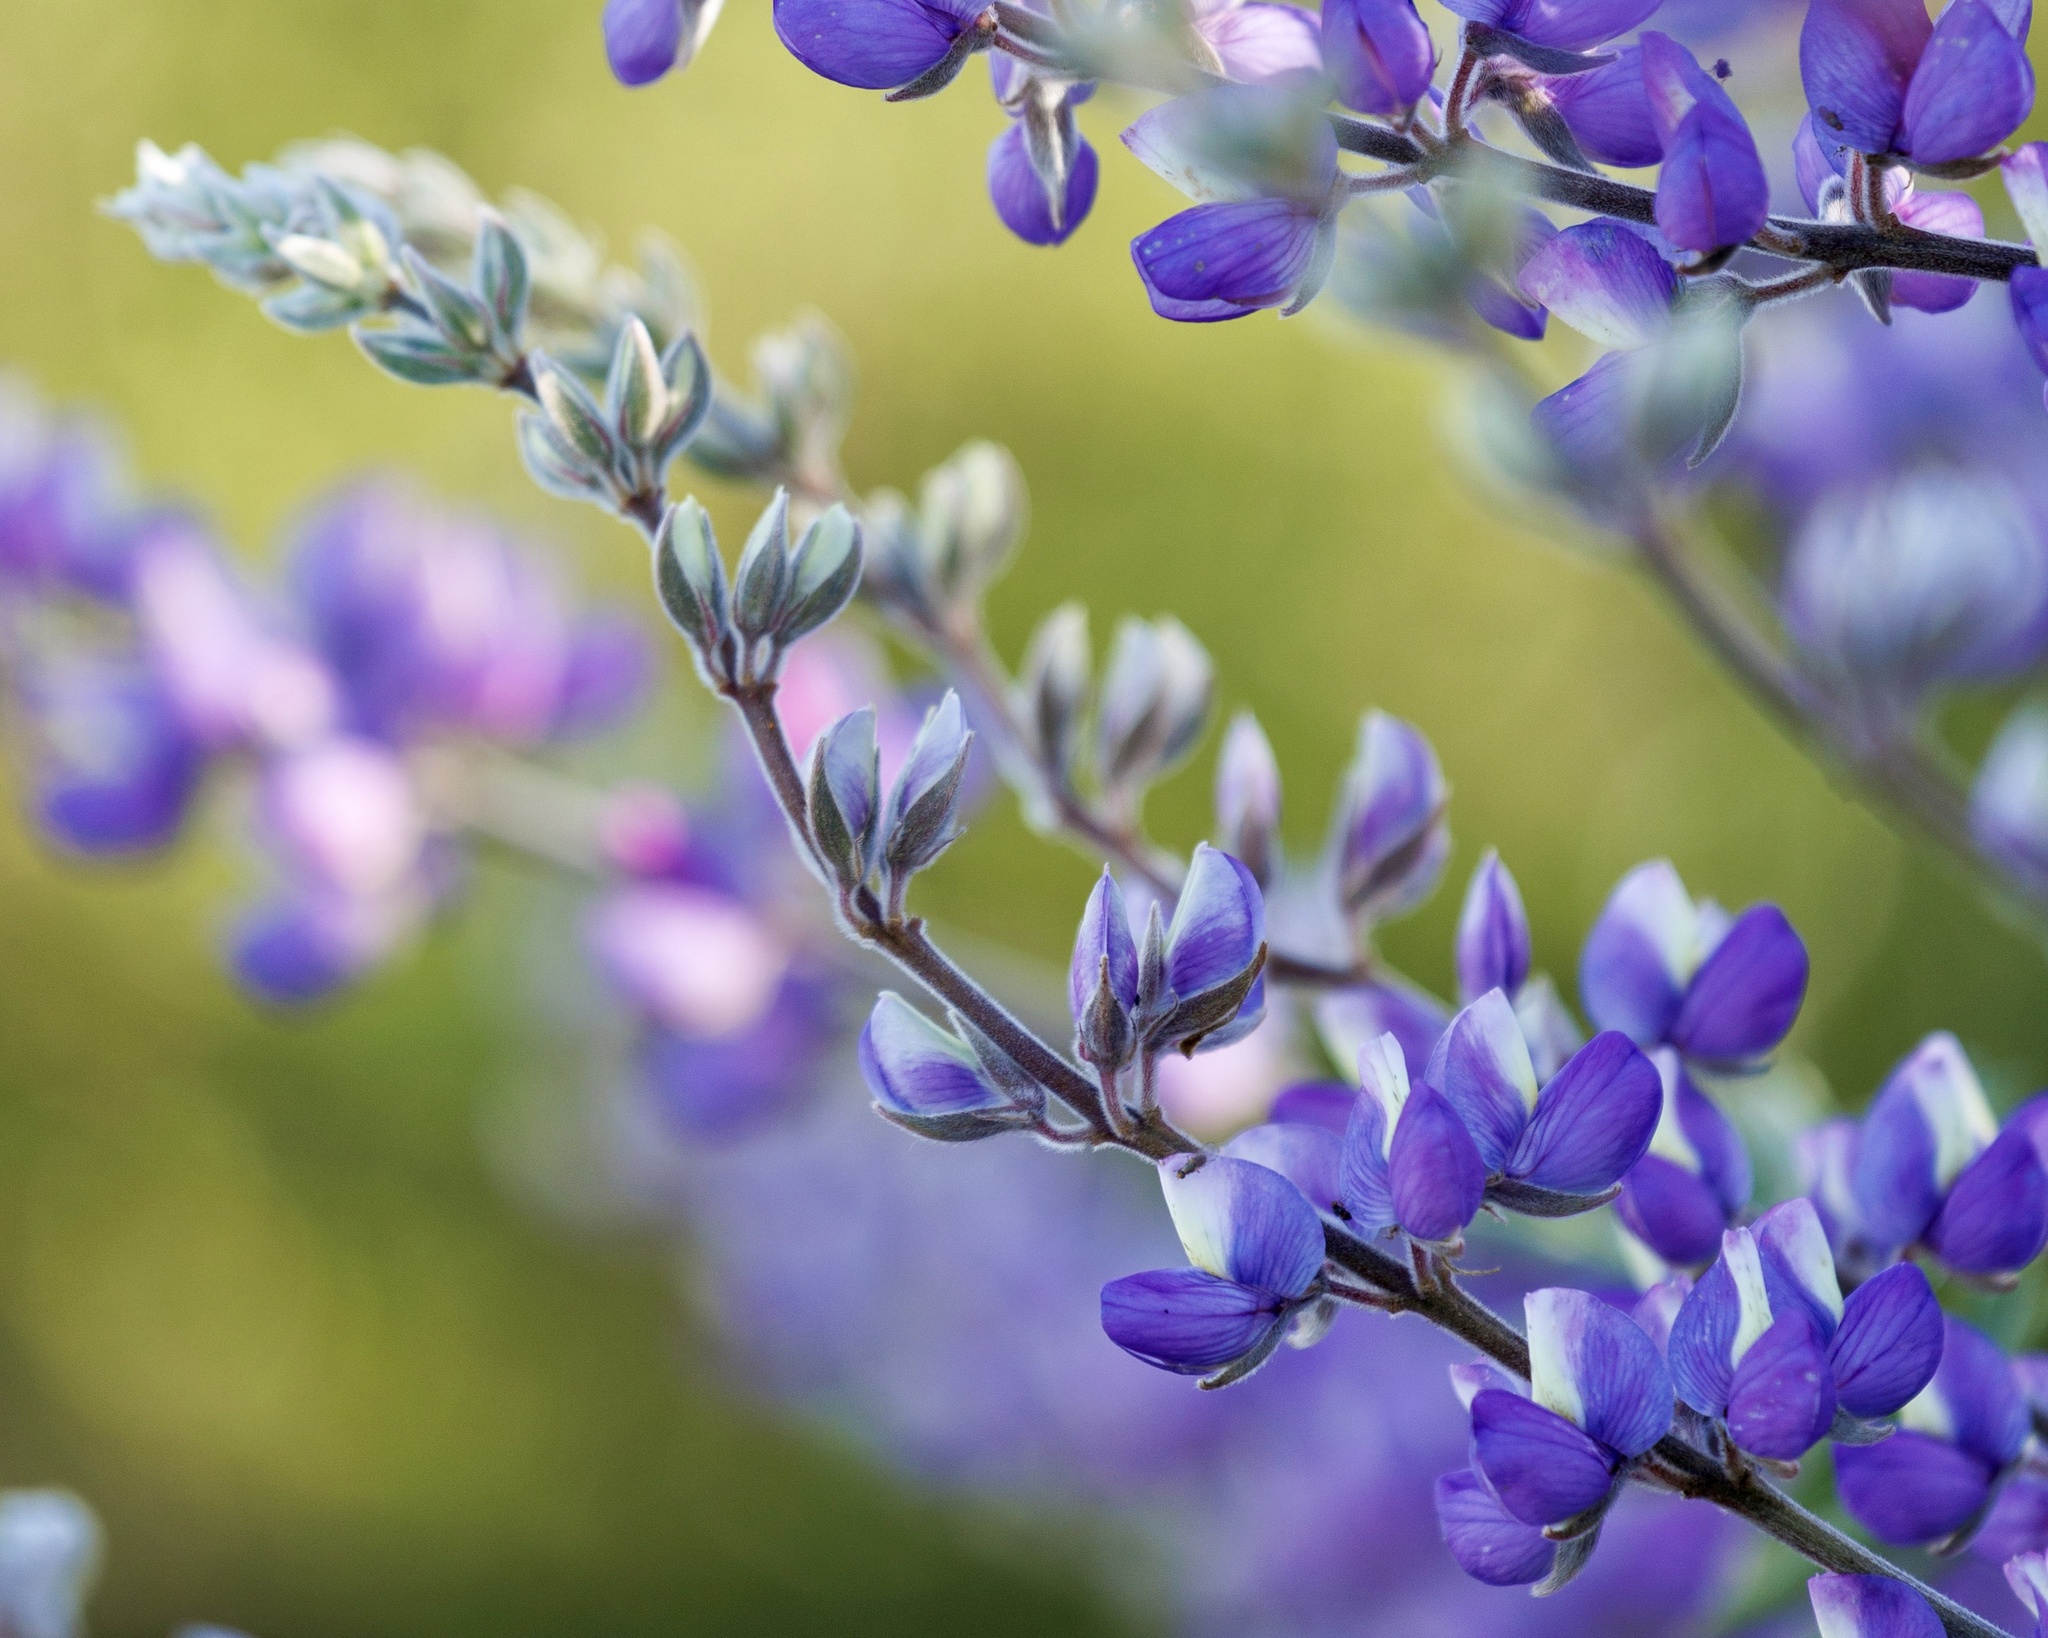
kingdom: Plantae
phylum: Tracheophyta
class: Magnoliopsida
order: Fabales
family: Fabaceae
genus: Lupinus
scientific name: Lupinus longifolius
